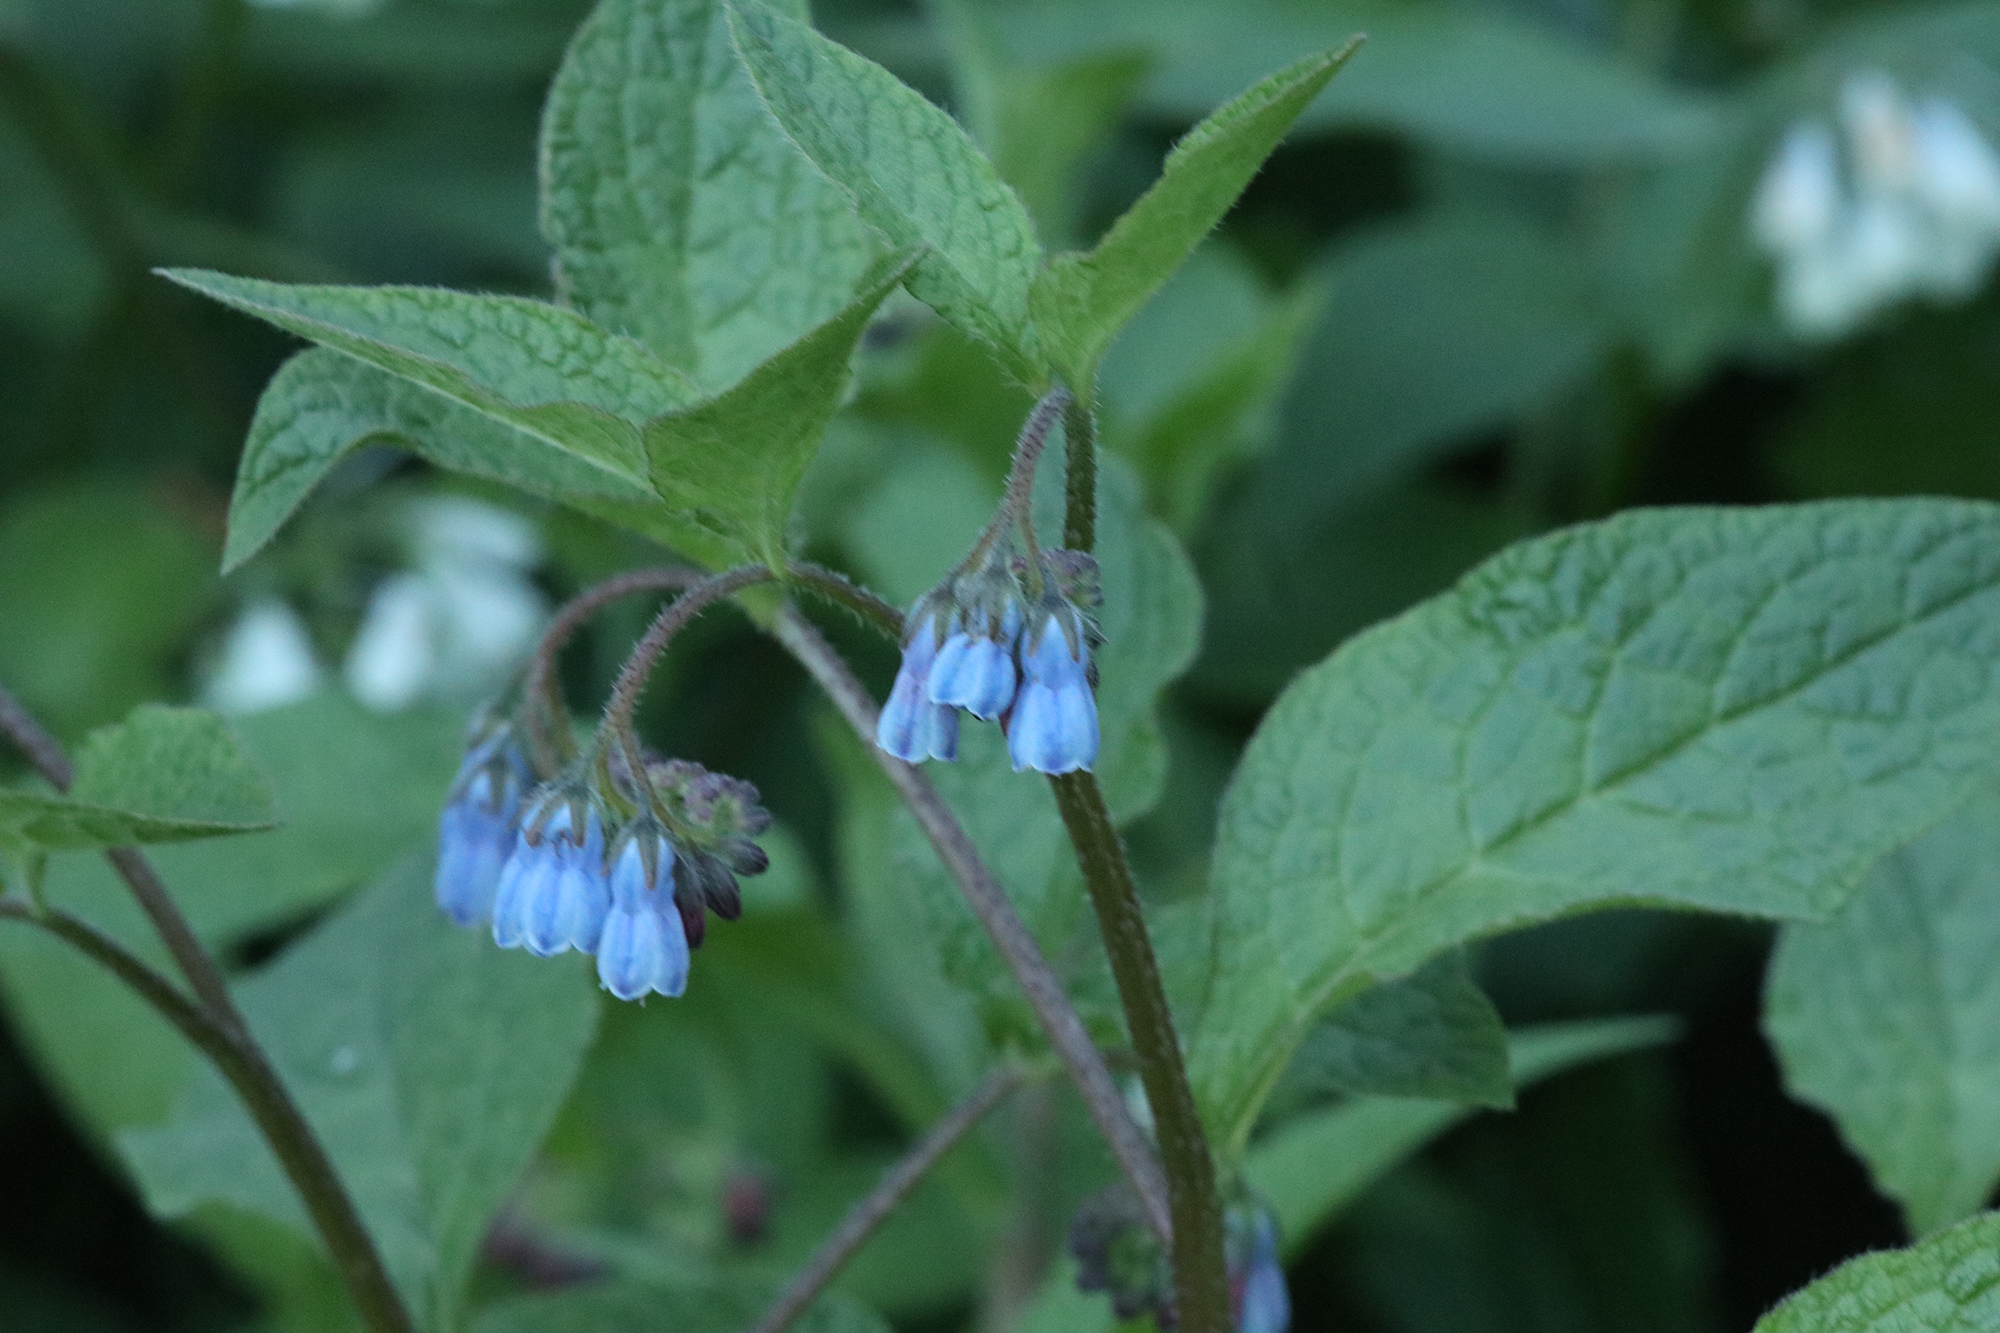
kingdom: Plantae
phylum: Tracheophyta
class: Magnoliopsida
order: Boraginales
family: Boraginaceae
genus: Symphytum
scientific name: Symphytum caucasicum
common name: Caucasian comfrey
